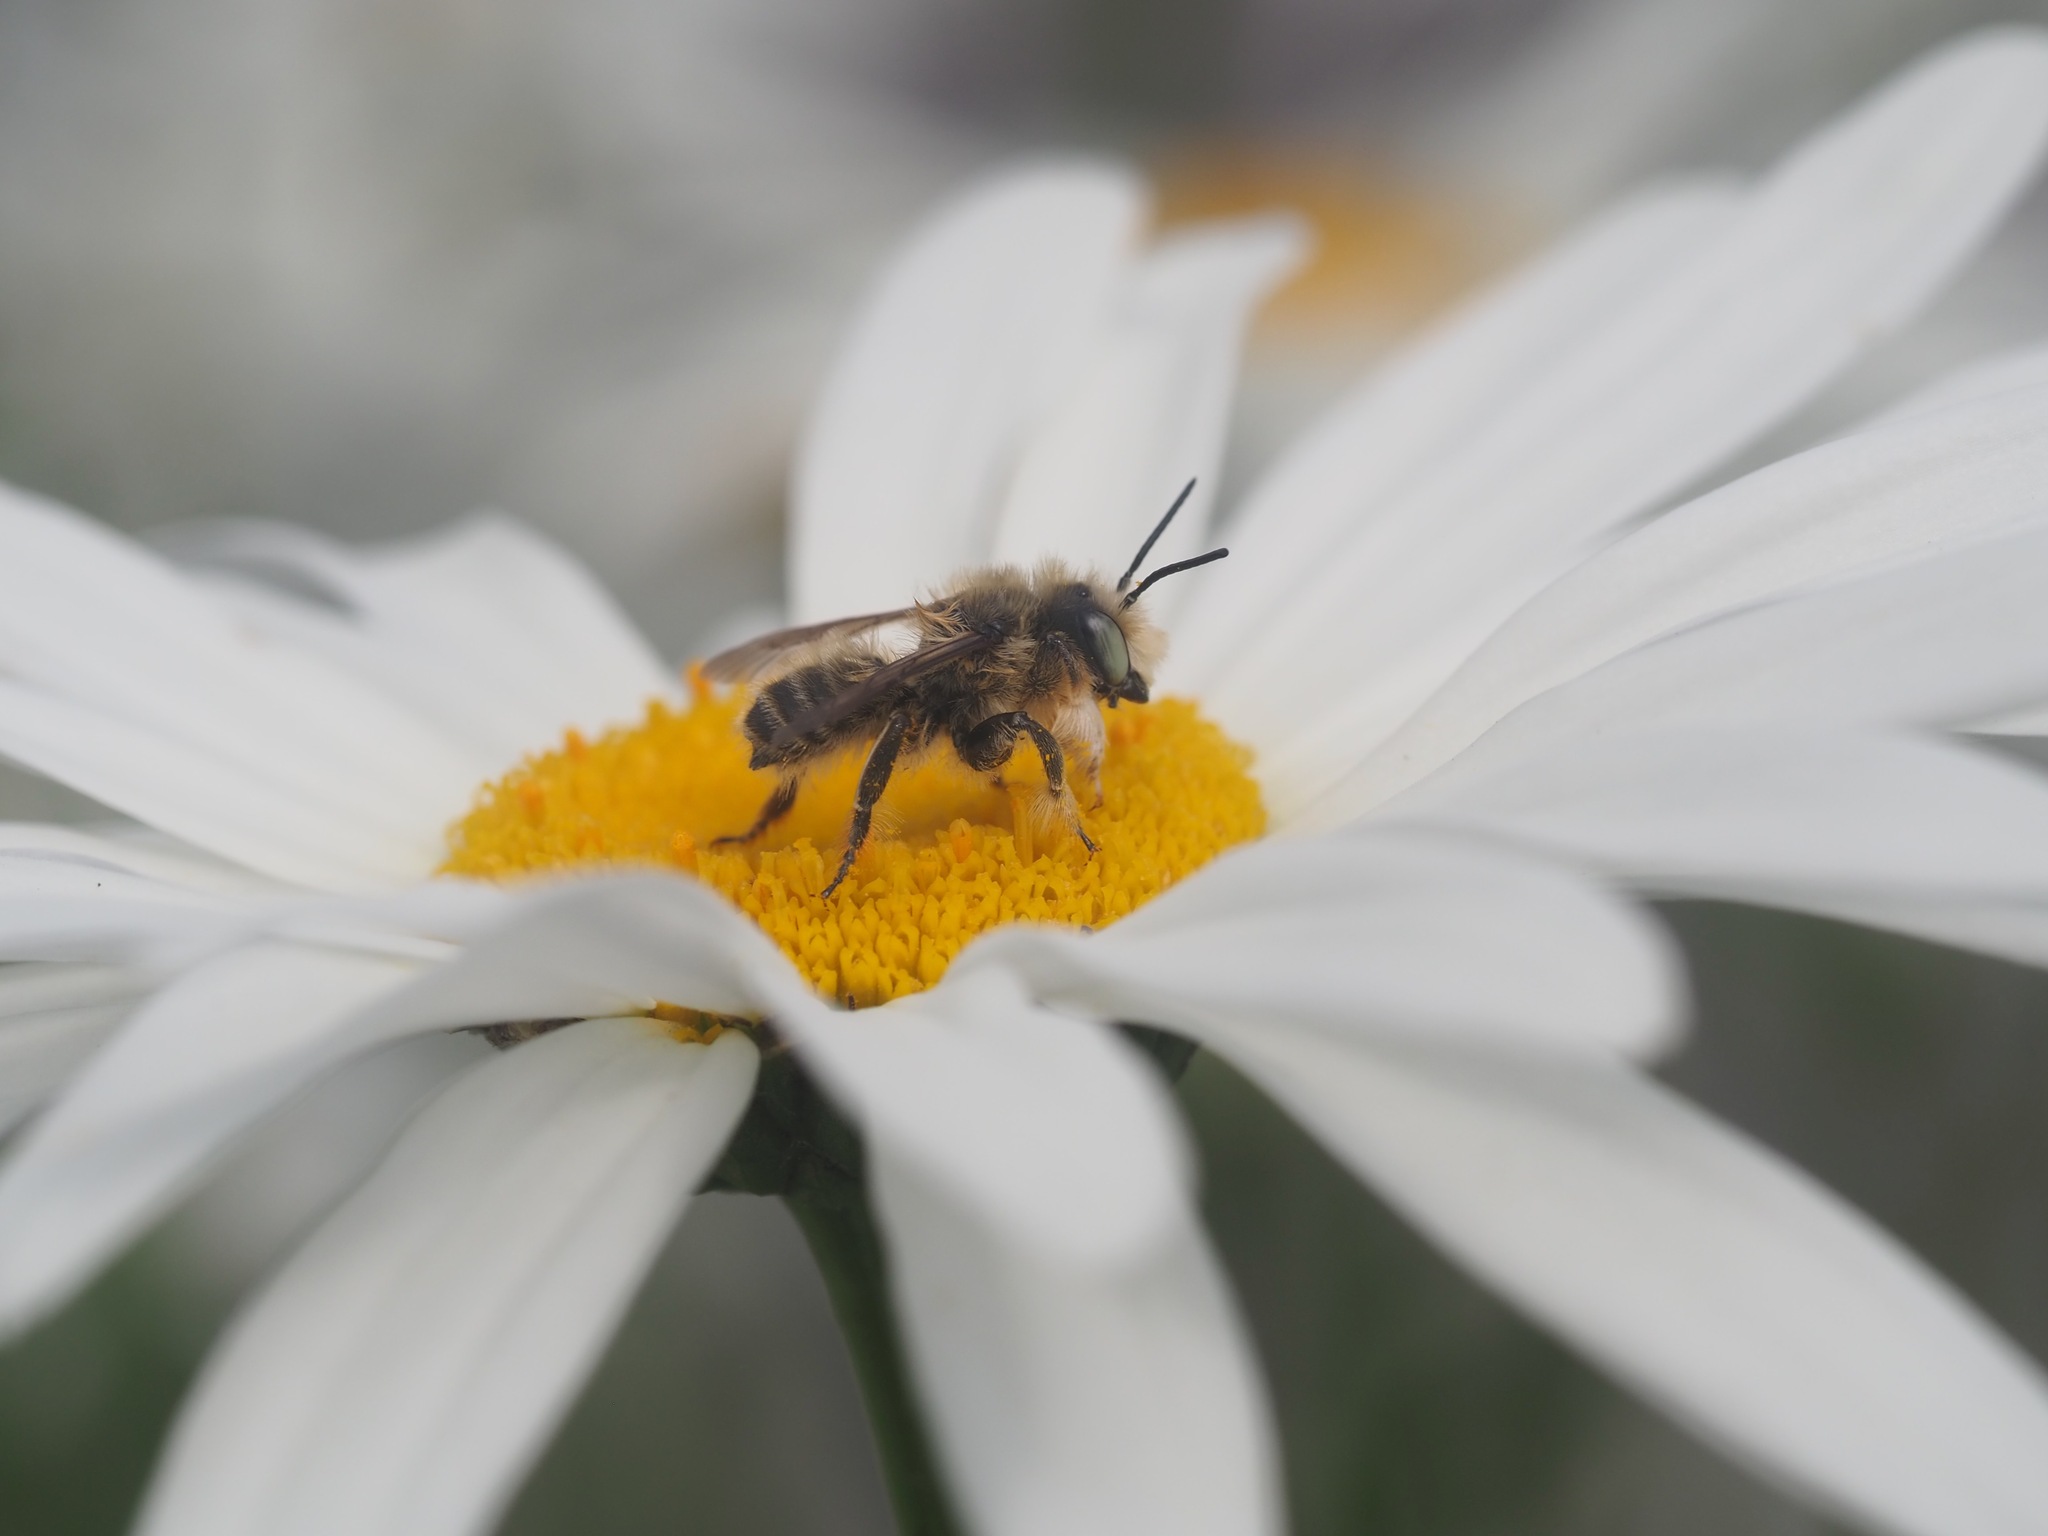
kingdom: Animalia
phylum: Arthropoda
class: Insecta
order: Hymenoptera
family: Megachilidae
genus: Megachile
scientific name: Megachile perihirta
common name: Western leafcutter
